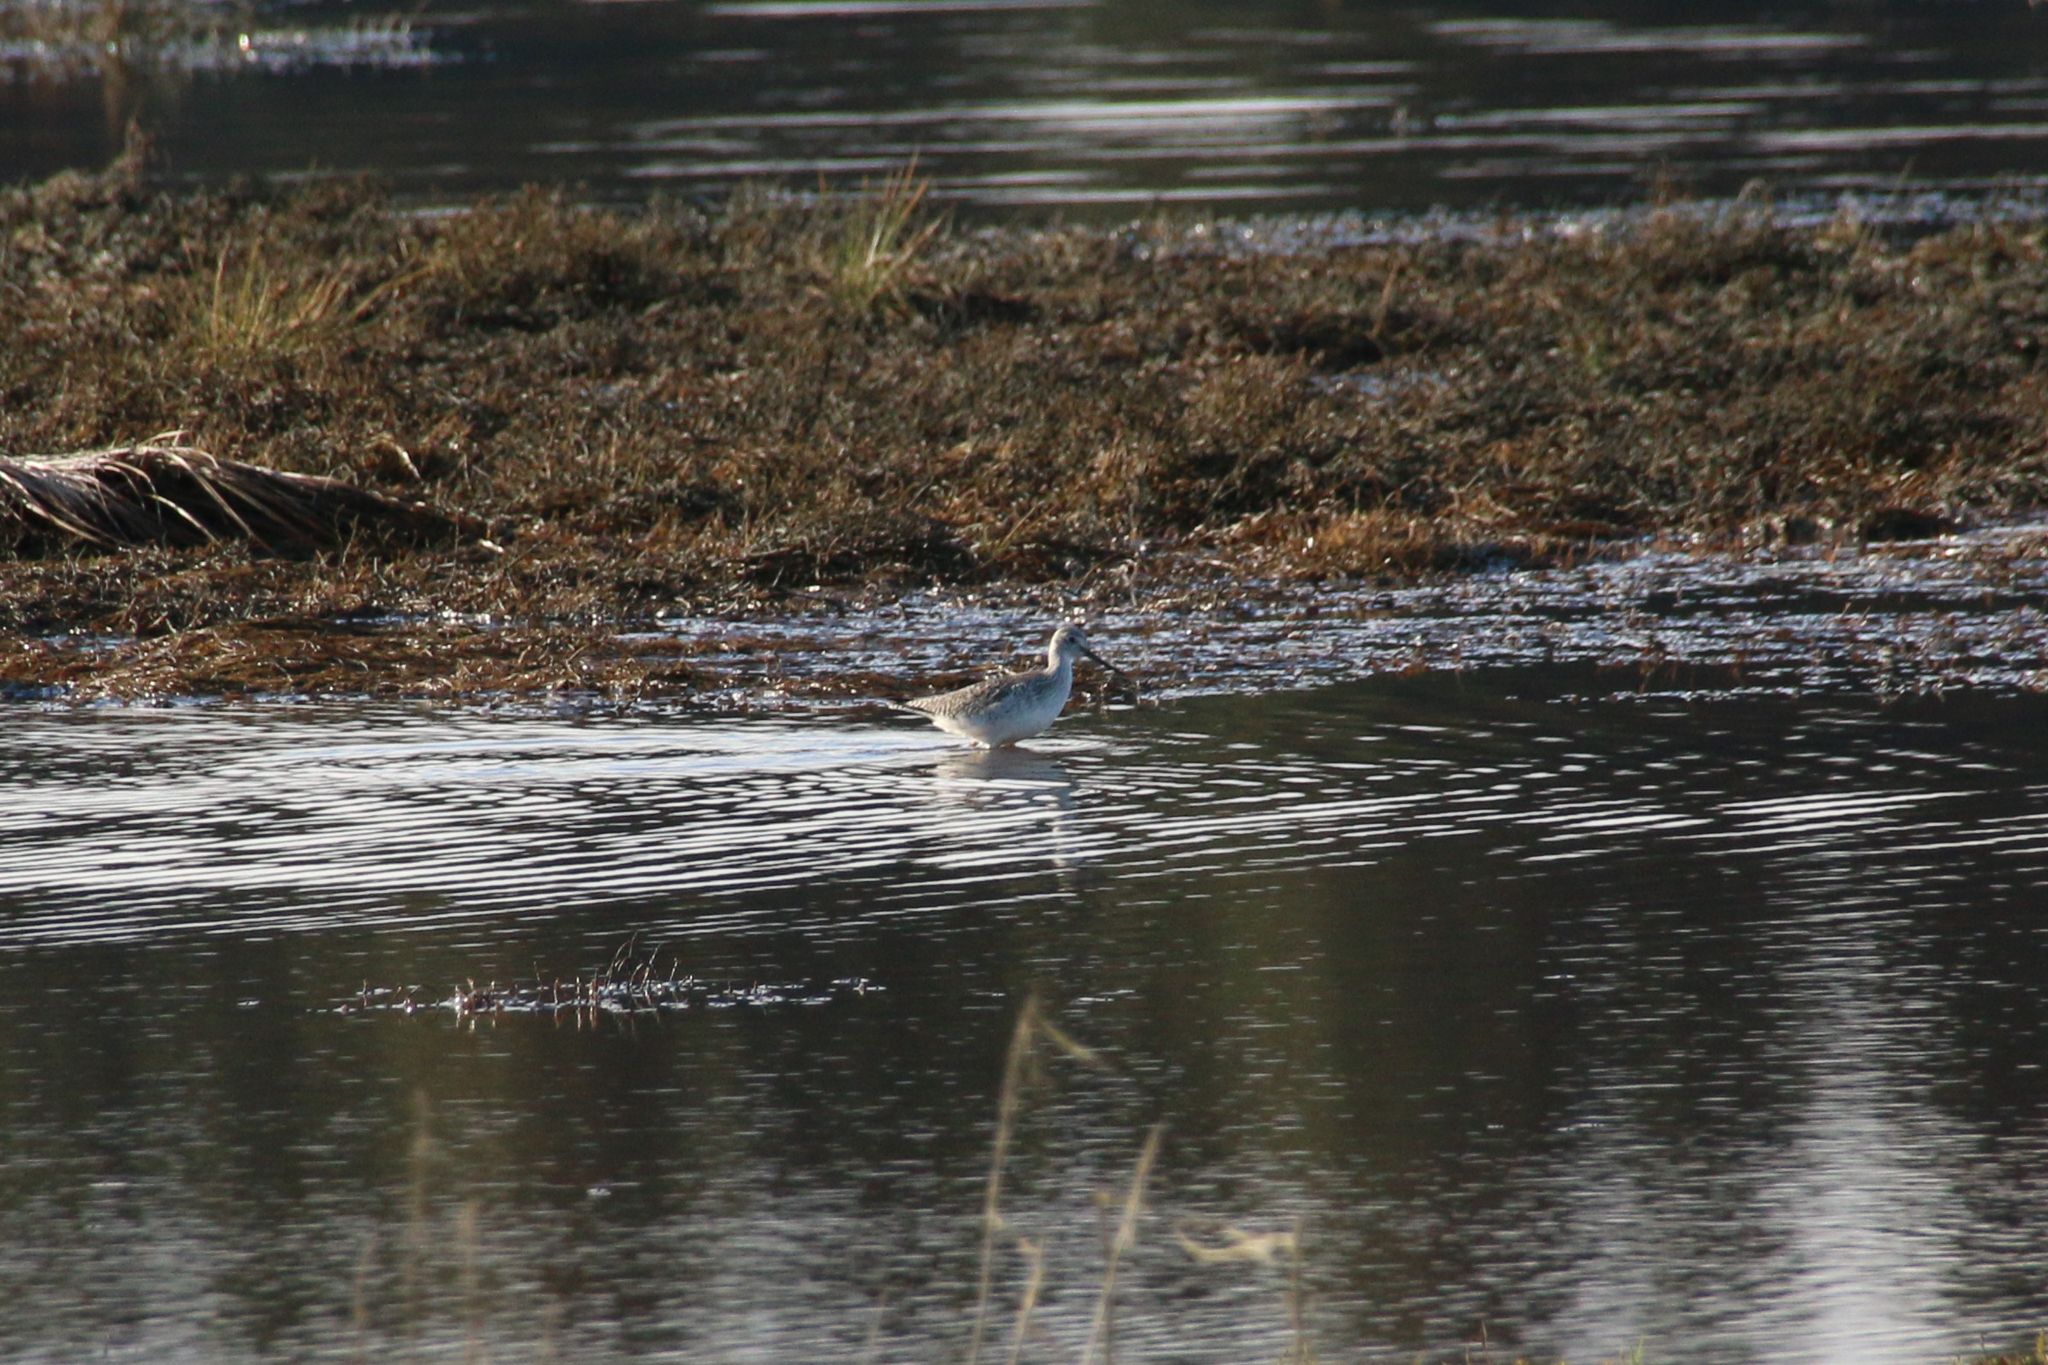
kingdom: Animalia
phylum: Chordata
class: Aves
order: Charadriiformes
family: Scolopacidae
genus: Tringa
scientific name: Tringa melanoleuca
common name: Greater yellowlegs
